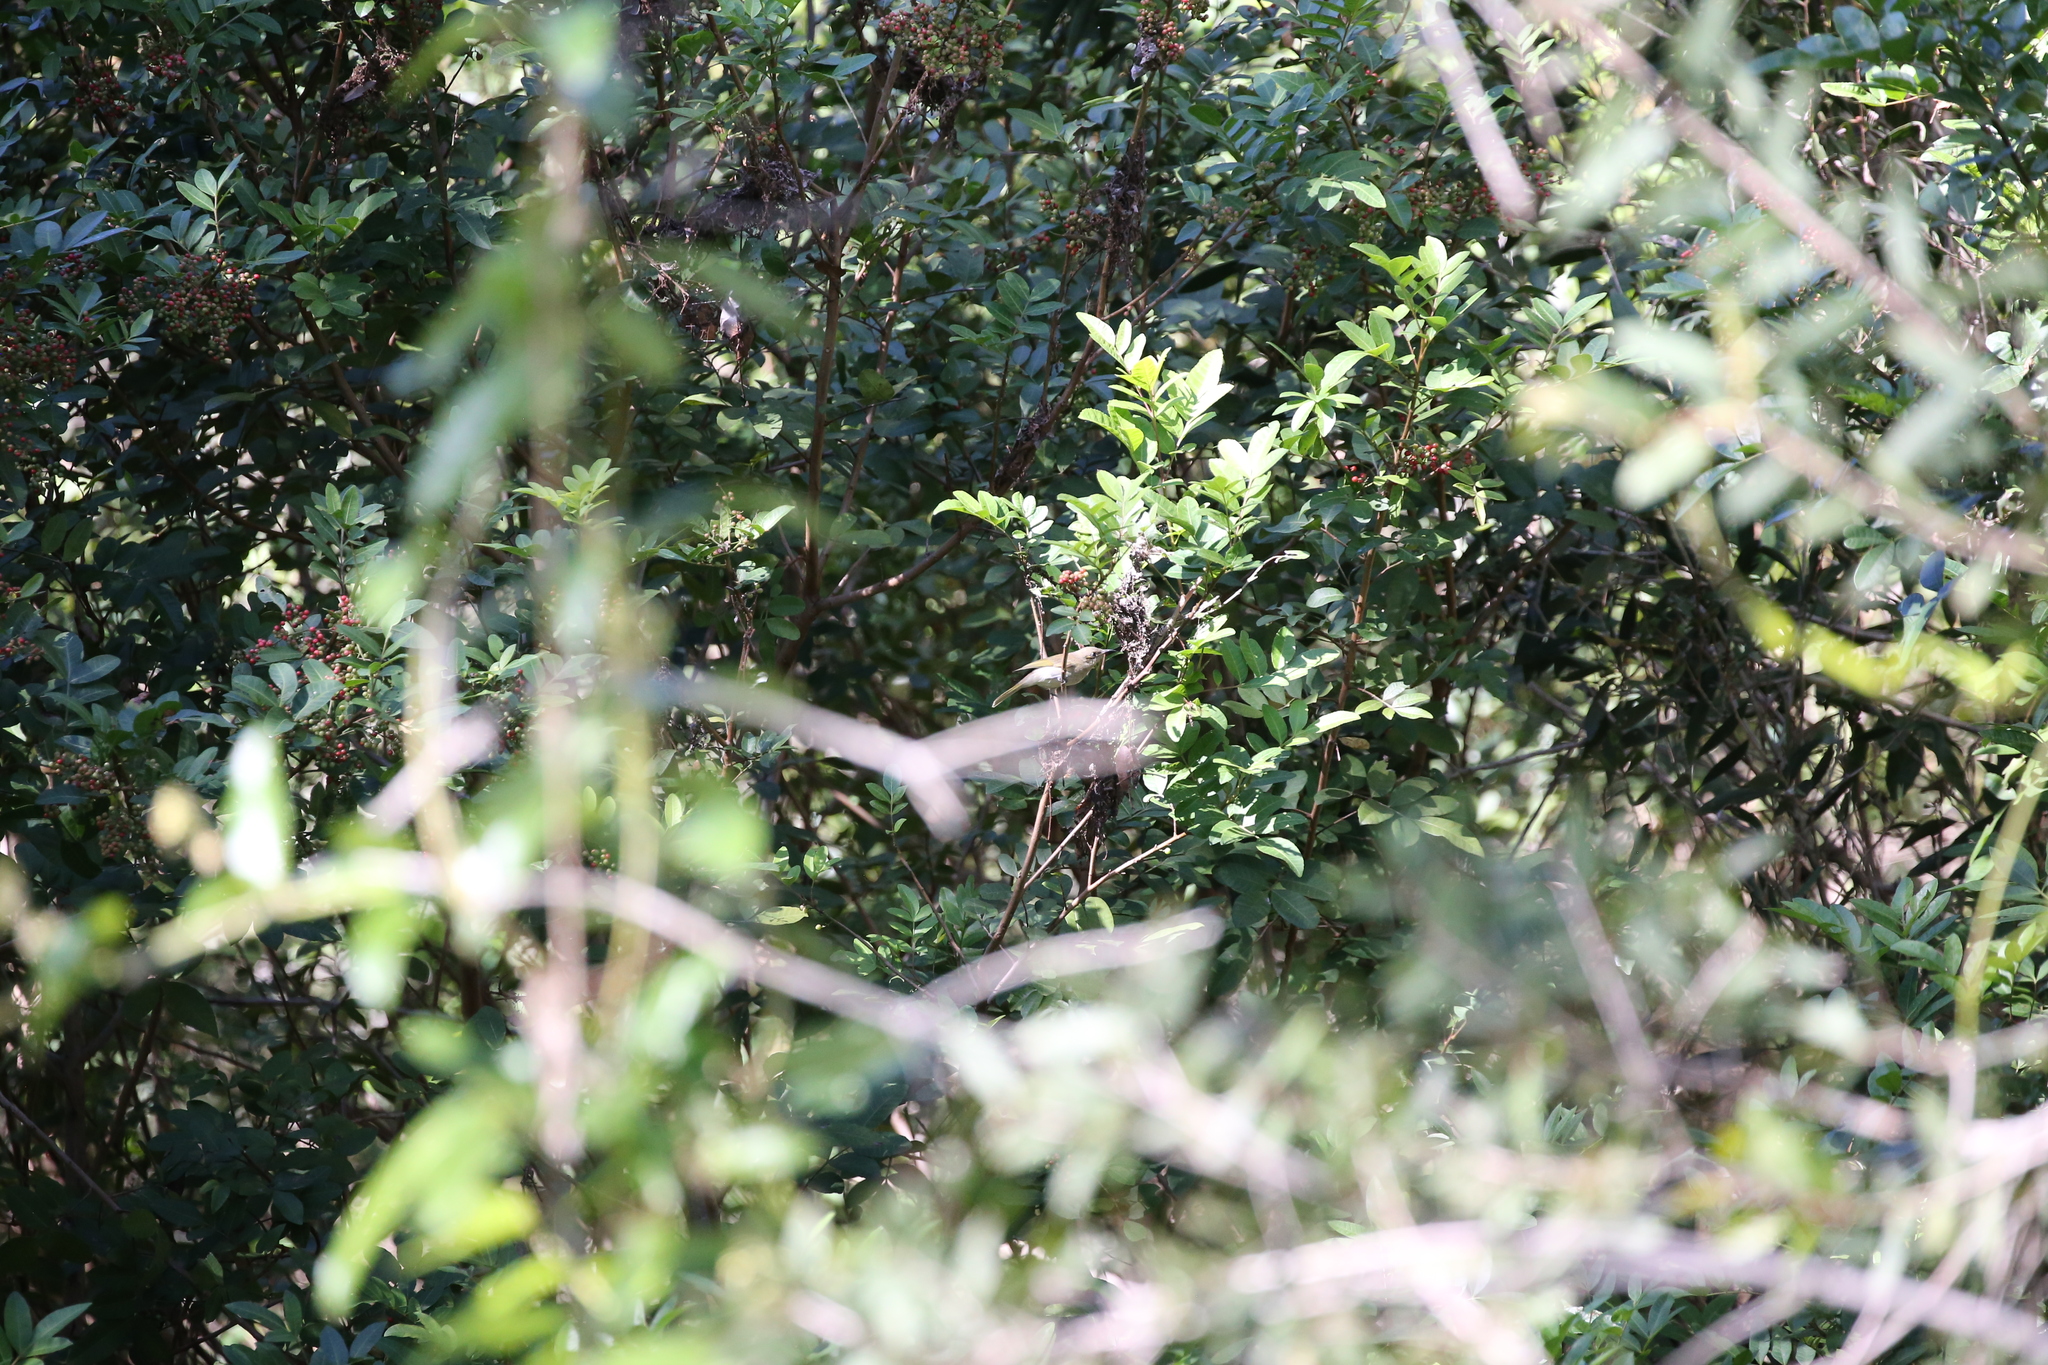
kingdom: Animalia
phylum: Chordata
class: Aves
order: Passeriformes
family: Meliphagidae
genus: Lichmera
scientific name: Lichmera indistincta
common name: Brown honeyeater
